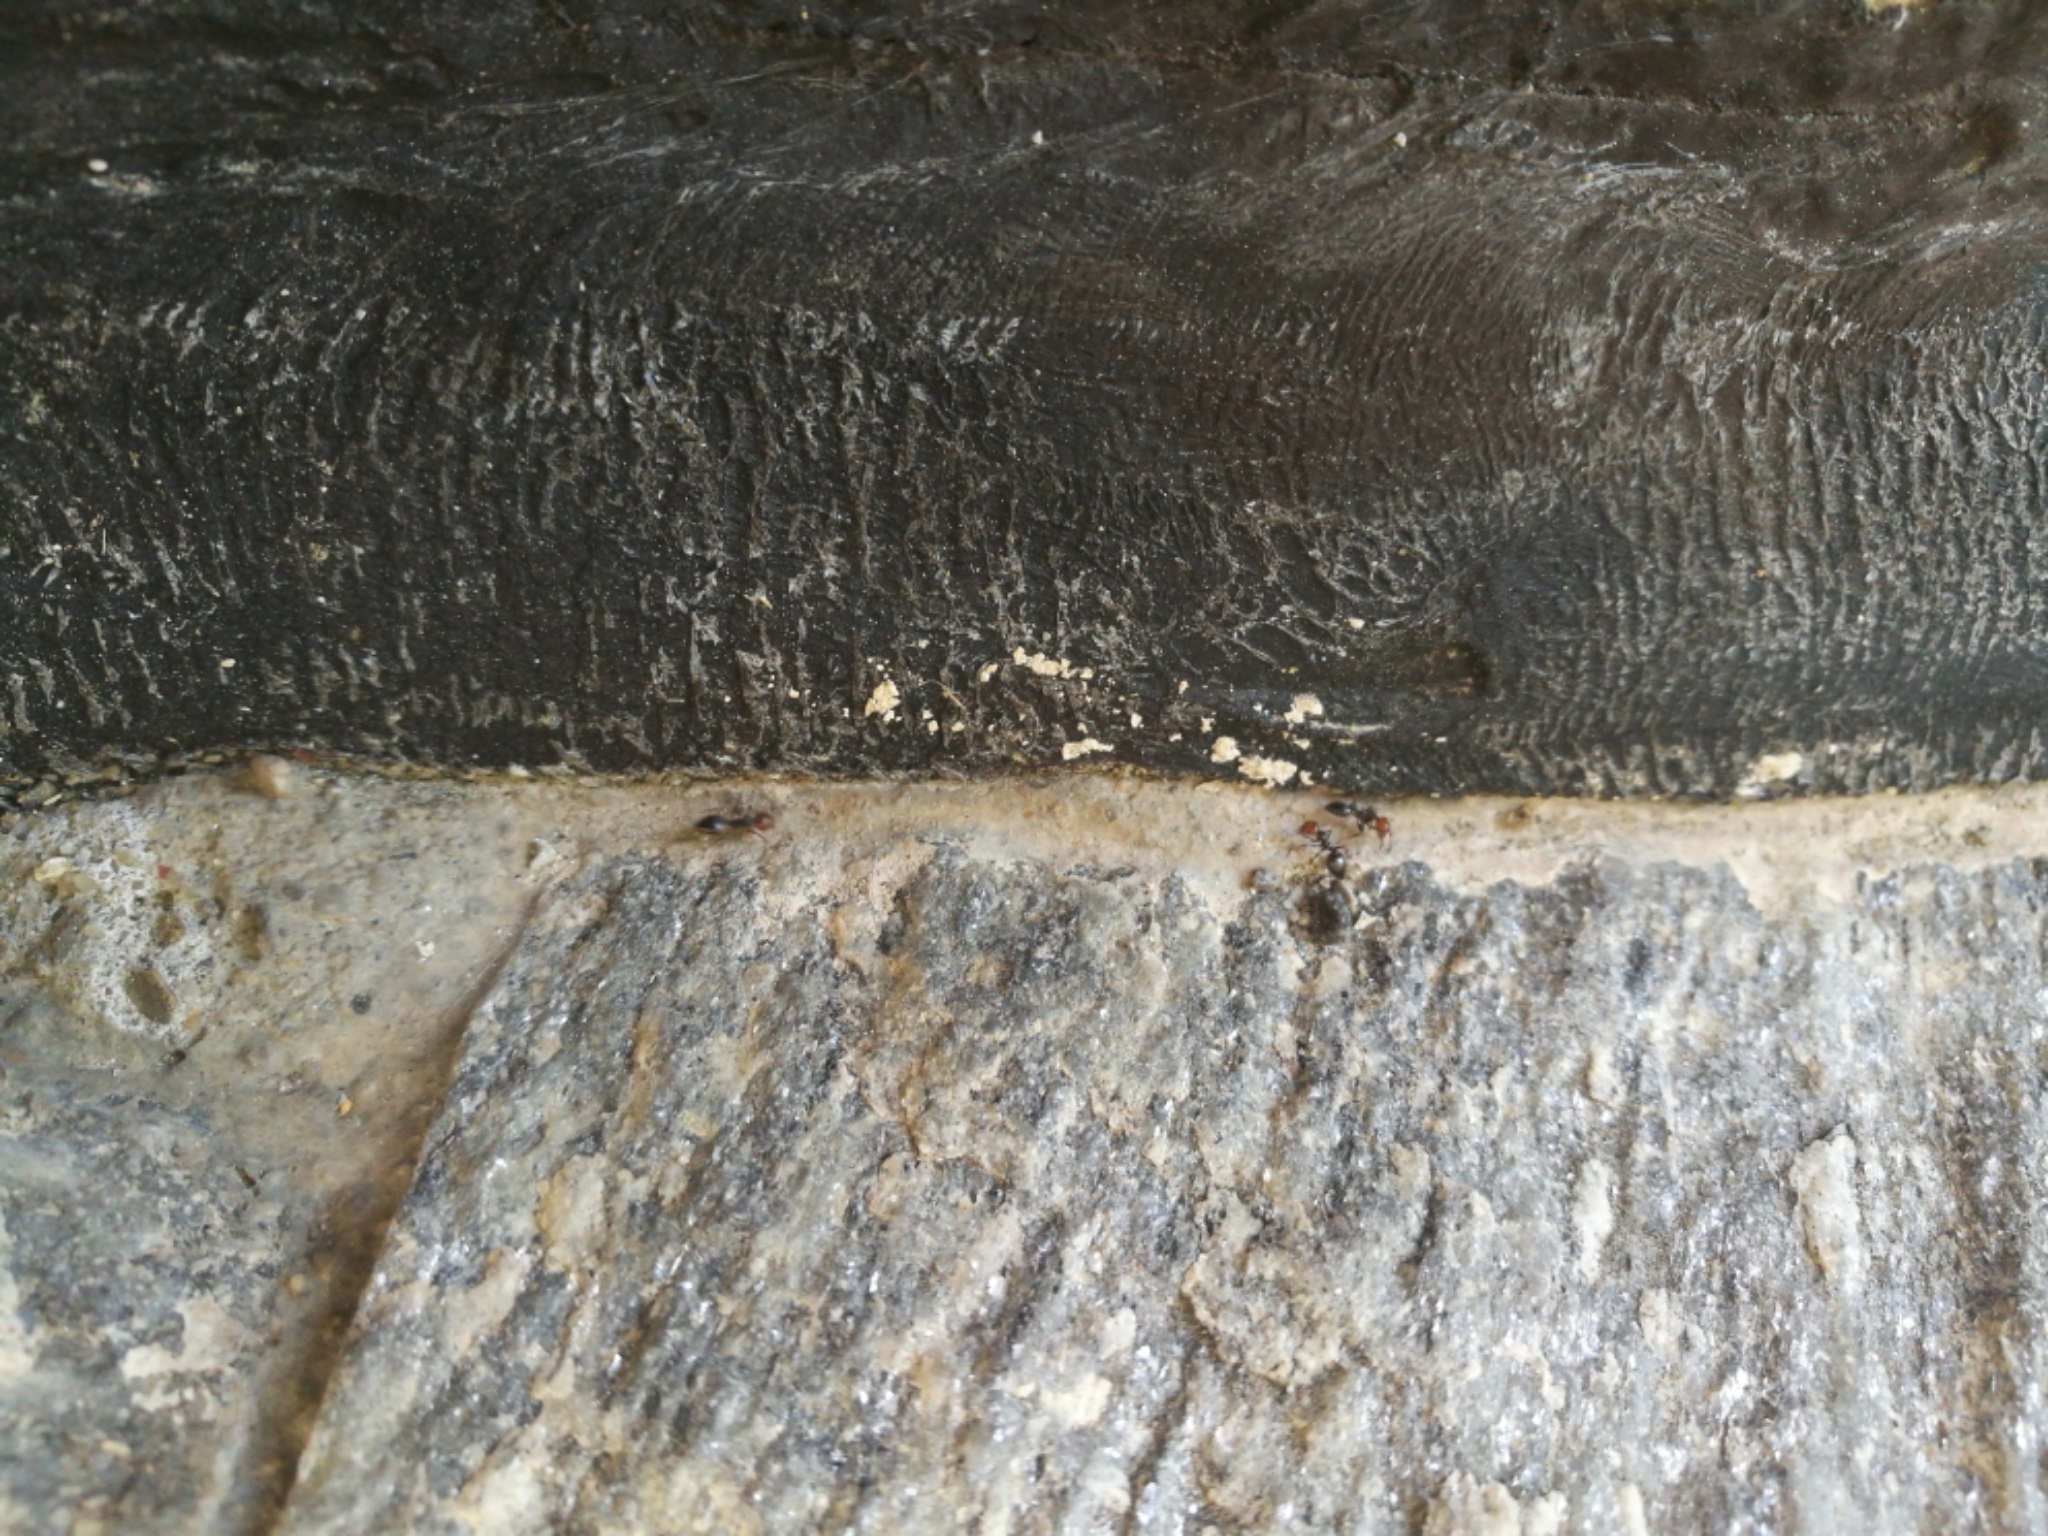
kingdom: Animalia
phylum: Arthropoda
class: Insecta
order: Hymenoptera
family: Formicidae
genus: Crematogaster
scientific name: Crematogaster scutellaris
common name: Fourmi du liège
